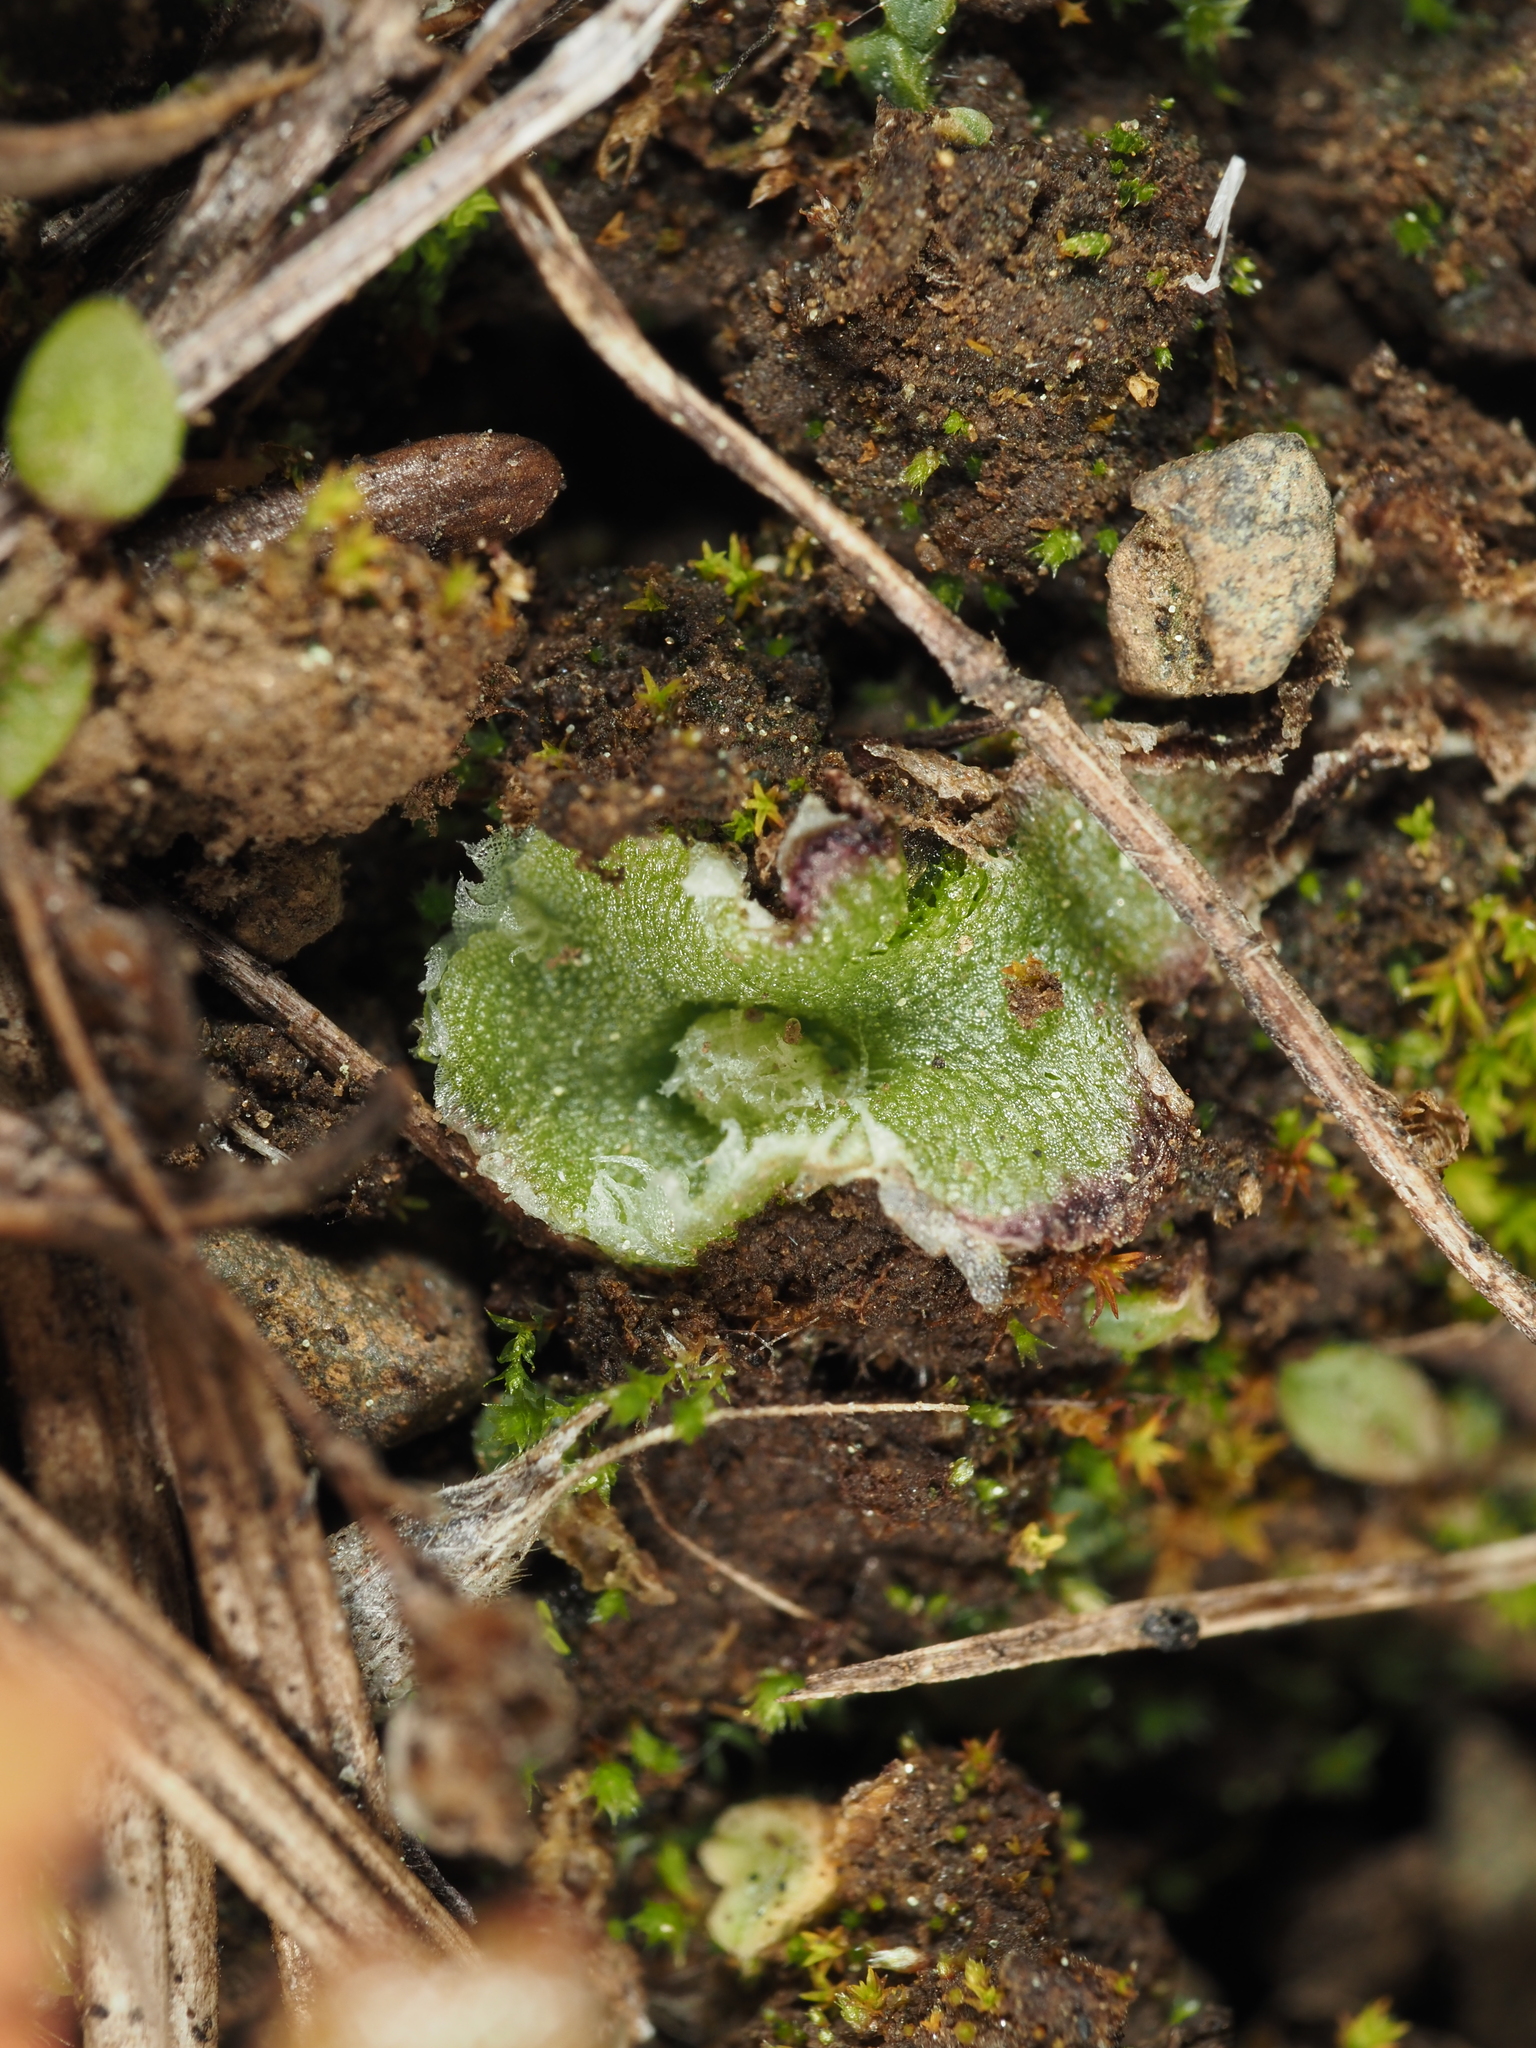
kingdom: Plantae
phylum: Marchantiophyta
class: Marchantiopsida
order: Marchantiales
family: Cleveaceae
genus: Clevea
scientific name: Clevea hyalina
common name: Hyaline liverwort
